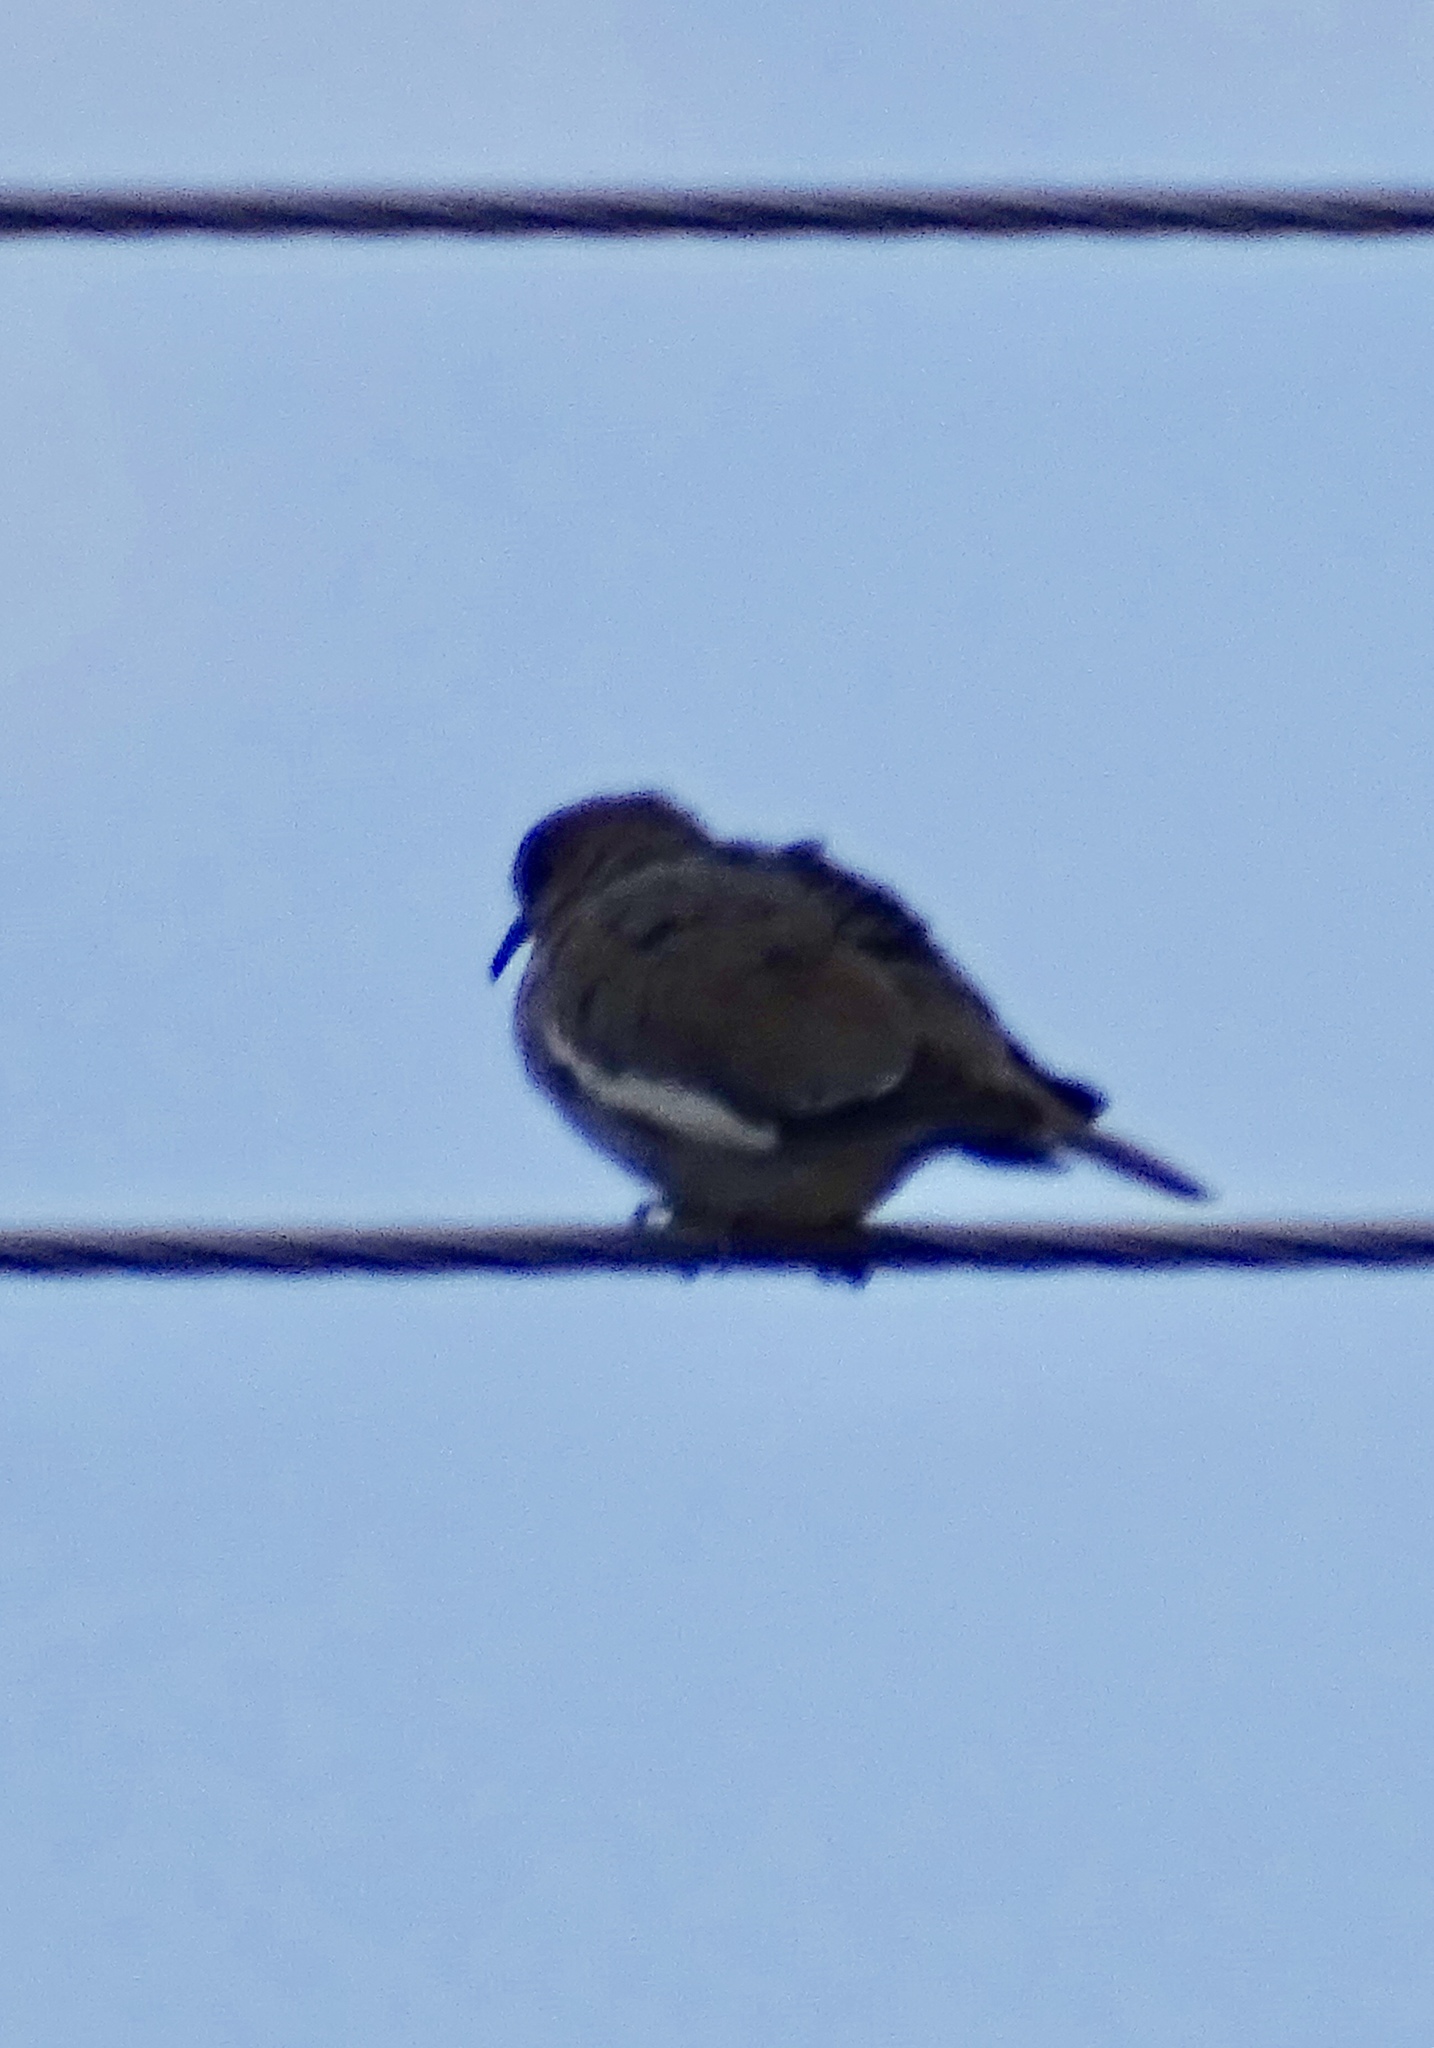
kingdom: Animalia
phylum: Chordata
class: Aves
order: Columbiformes
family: Columbidae
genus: Zenaida
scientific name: Zenaida asiatica
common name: White-winged dove
